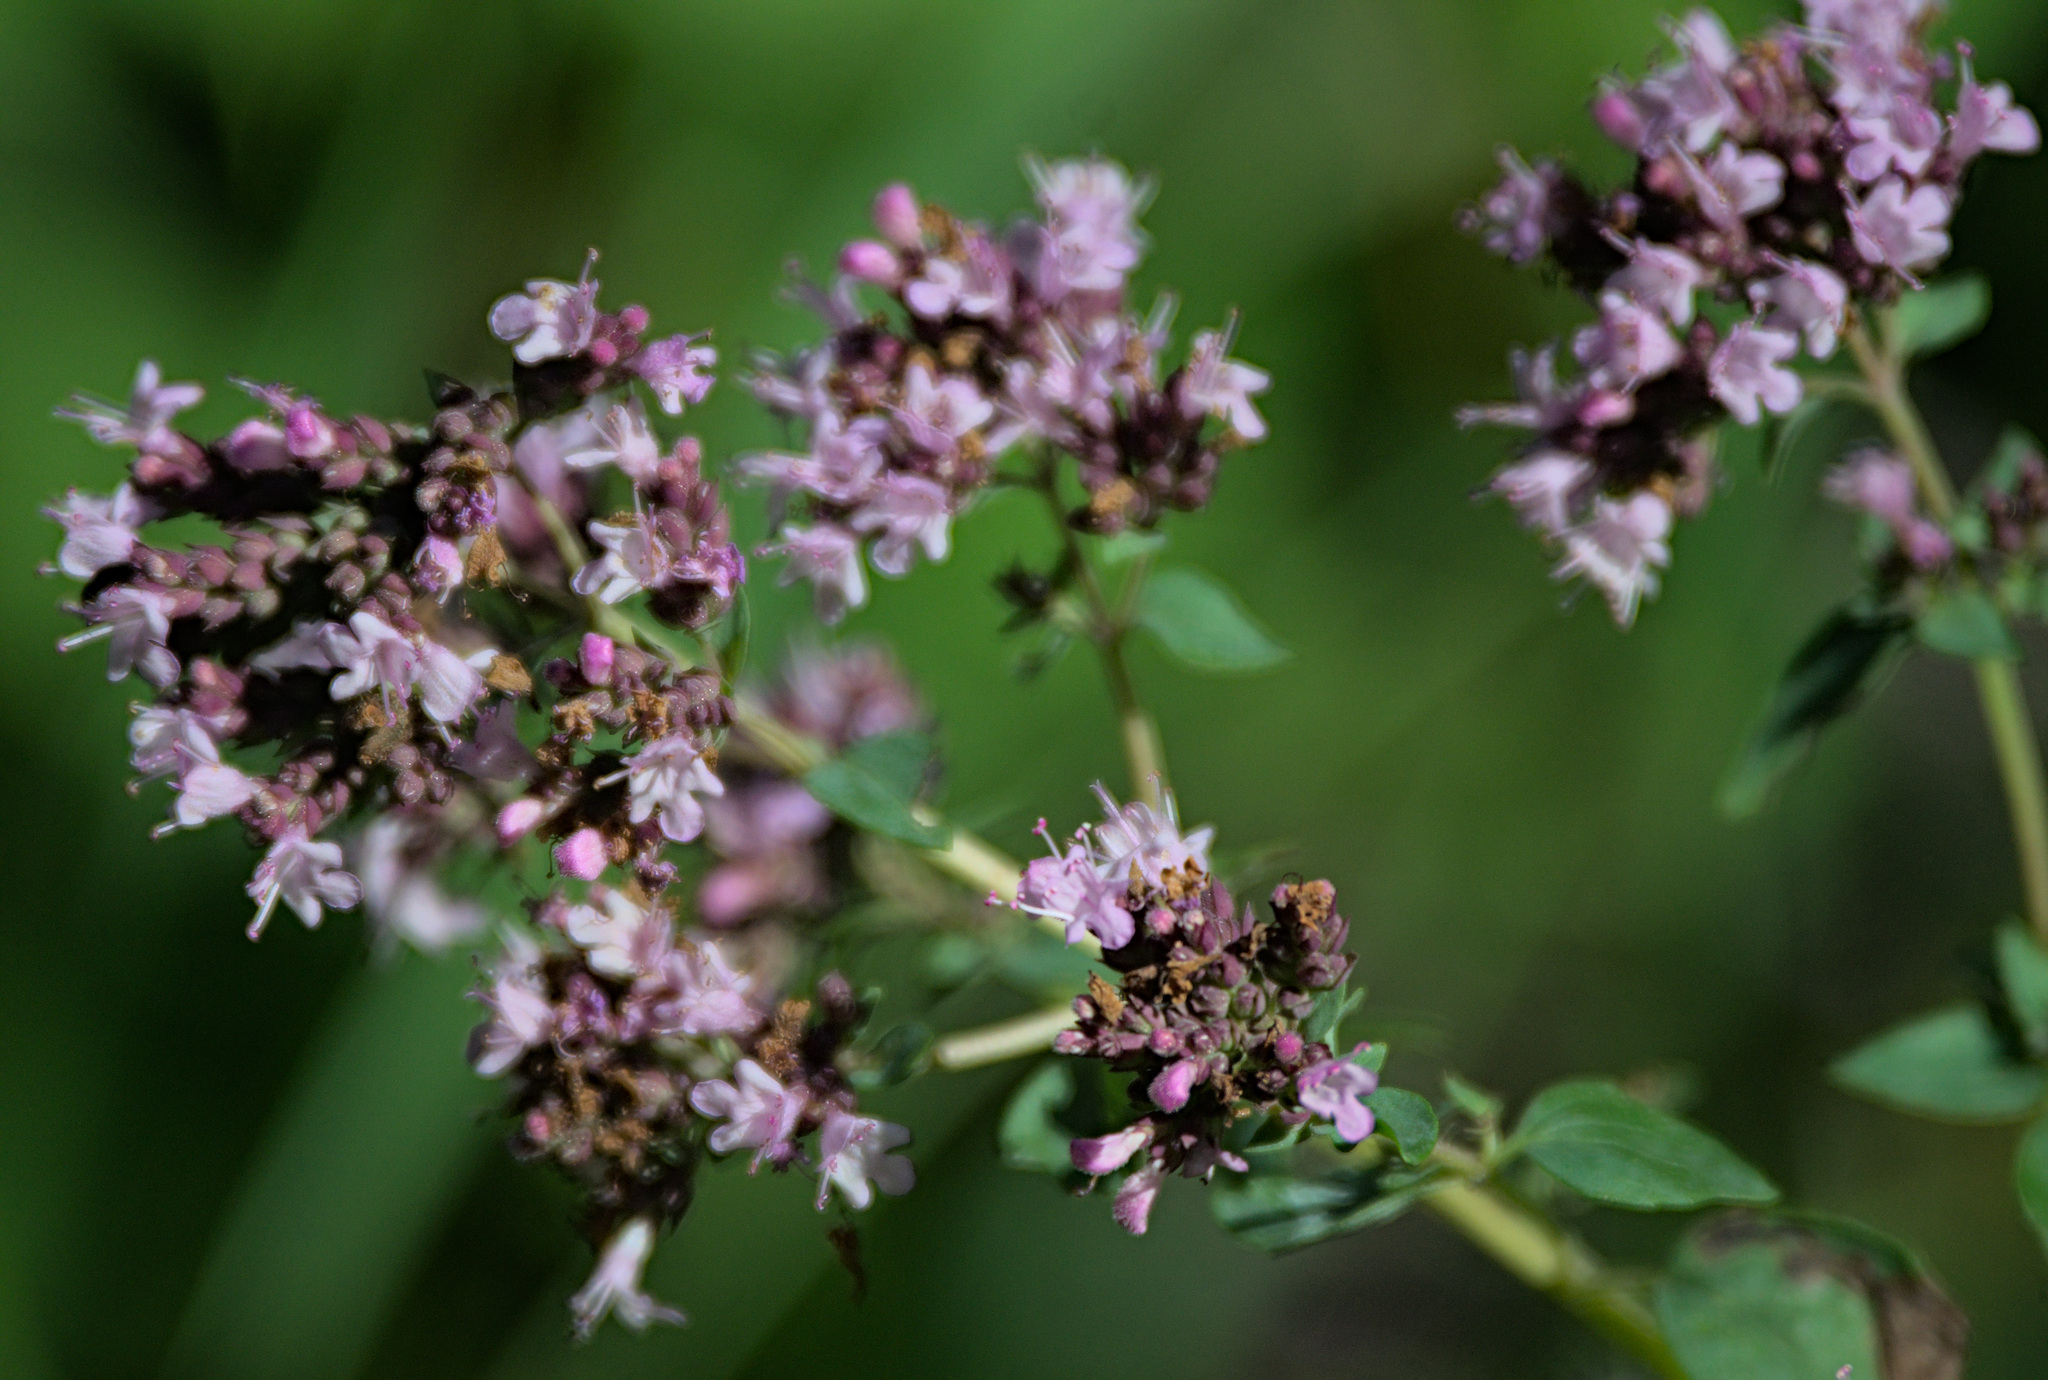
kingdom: Plantae
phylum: Tracheophyta
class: Magnoliopsida
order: Lamiales
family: Lamiaceae
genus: Origanum
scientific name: Origanum vulgare
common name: Wild marjoram
